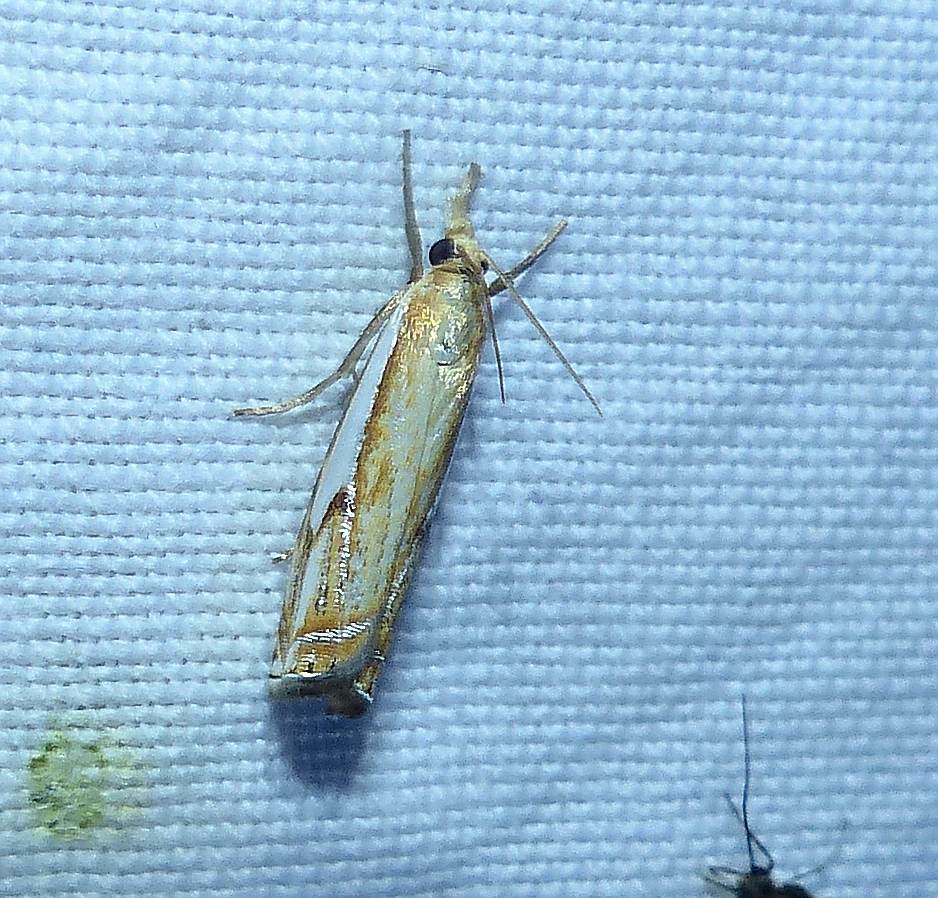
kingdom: Animalia
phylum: Arthropoda
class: Insecta
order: Lepidoptera
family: Crambidae
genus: Crambus
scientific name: Crambus agitatellus
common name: Double-banded grass-veneer
